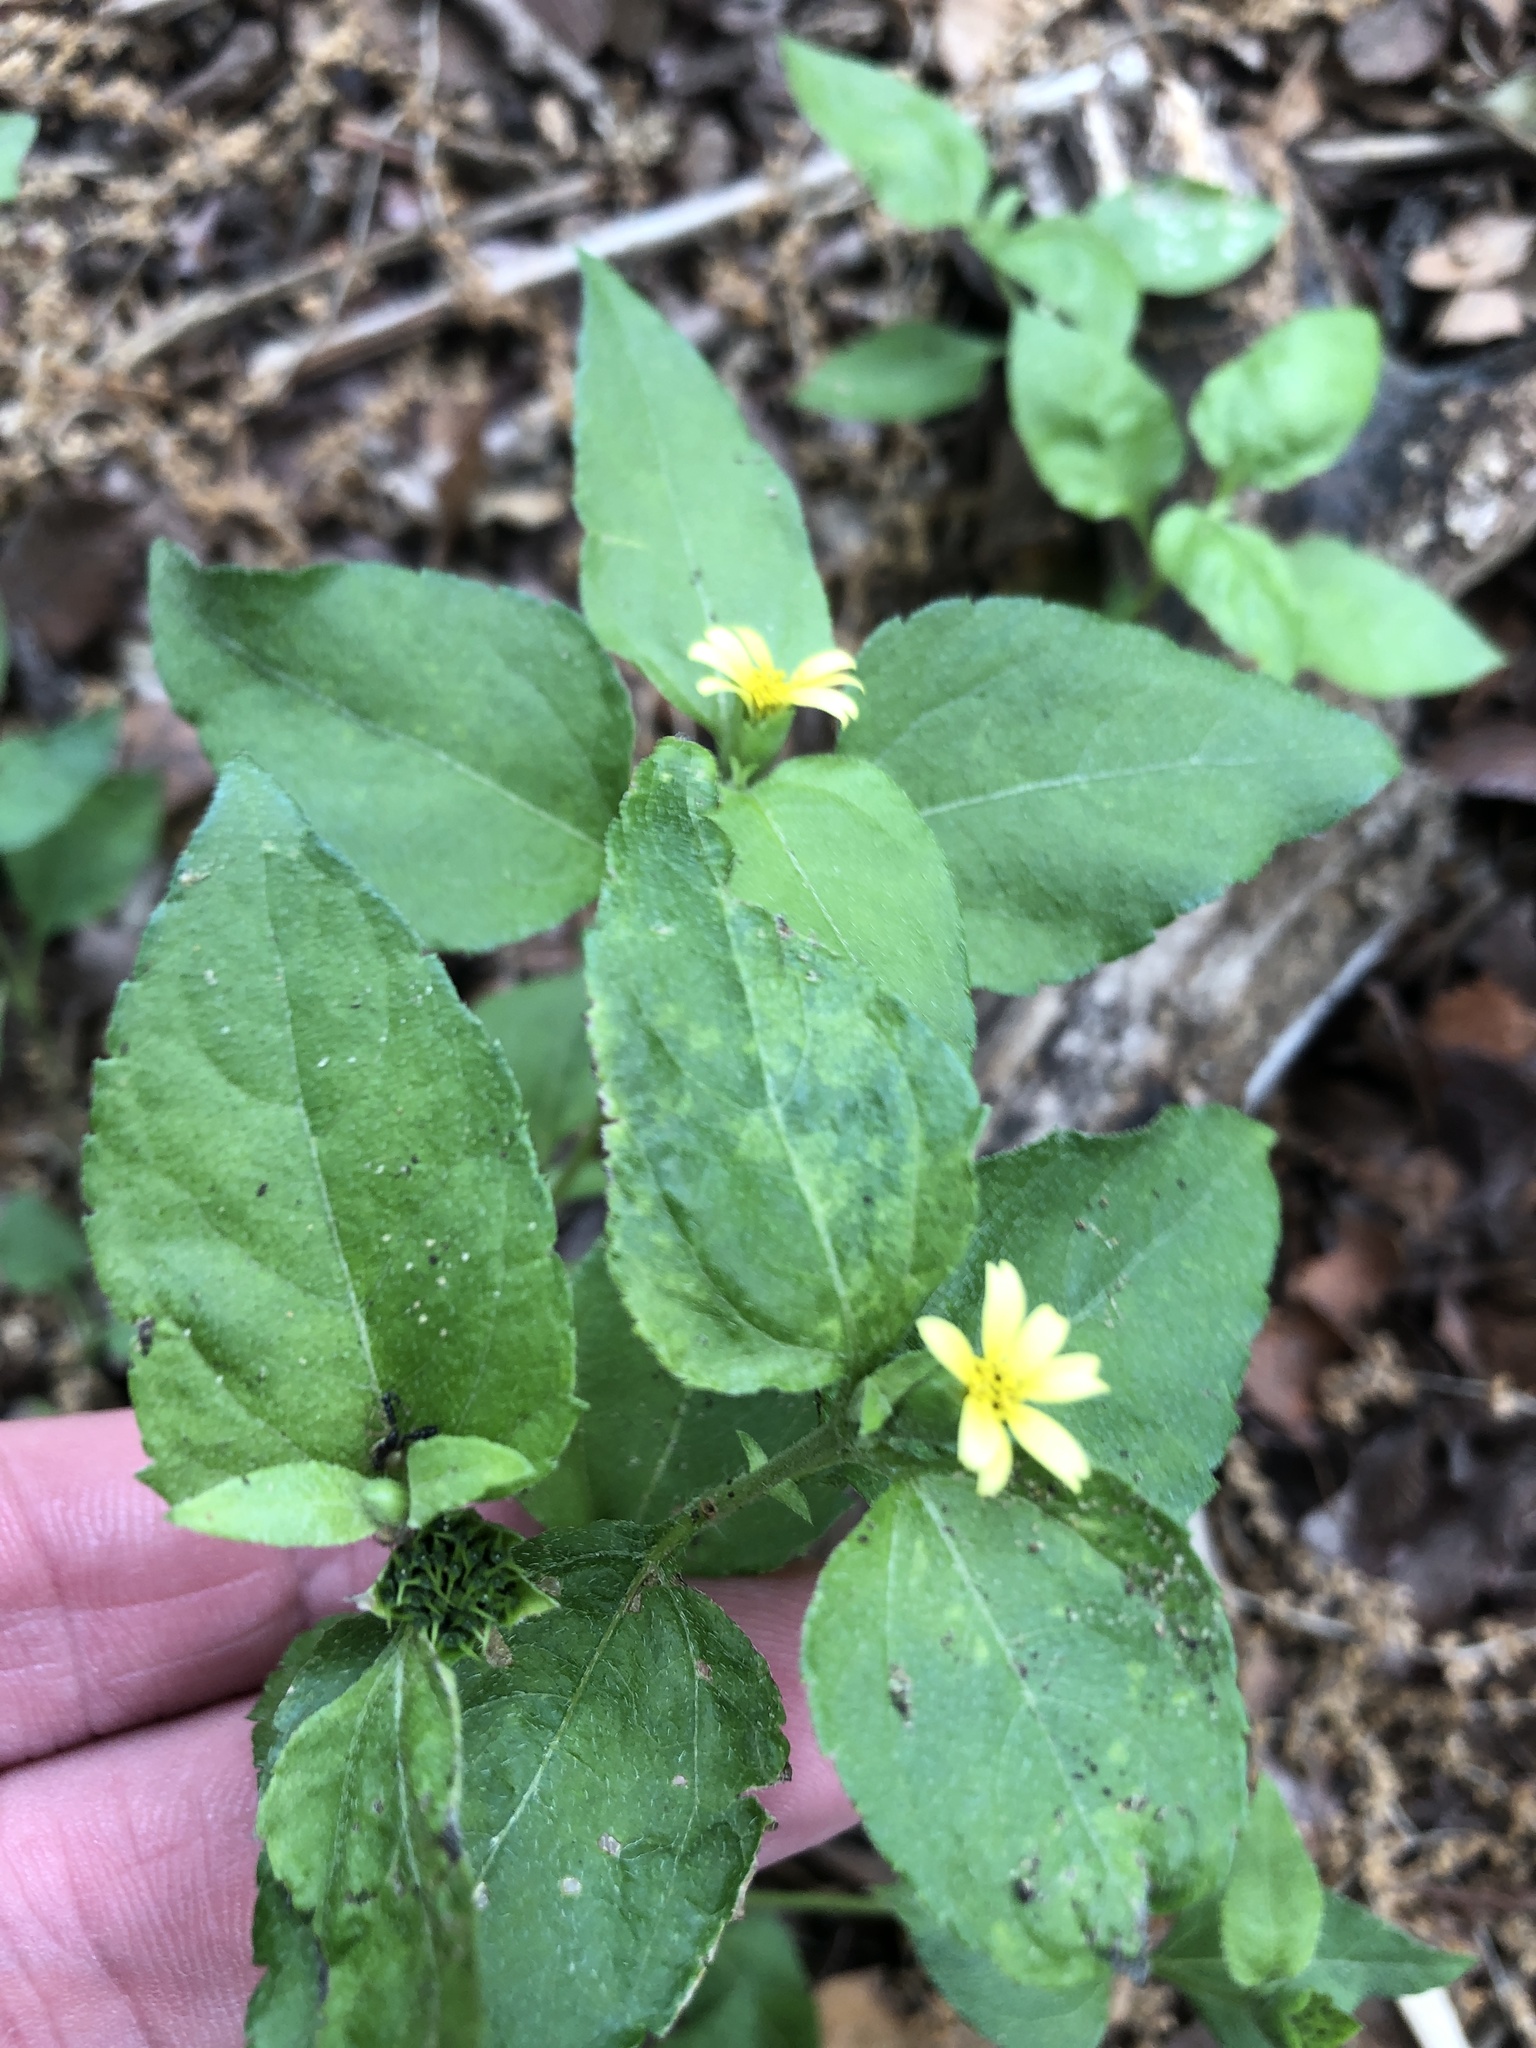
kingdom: Plantae
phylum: Tracheophyta
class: Magnoliopsida
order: Asterales
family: Asteraceae
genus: Calyptocarpus
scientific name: Calyptocarpus vialis
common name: Straggler daisy
